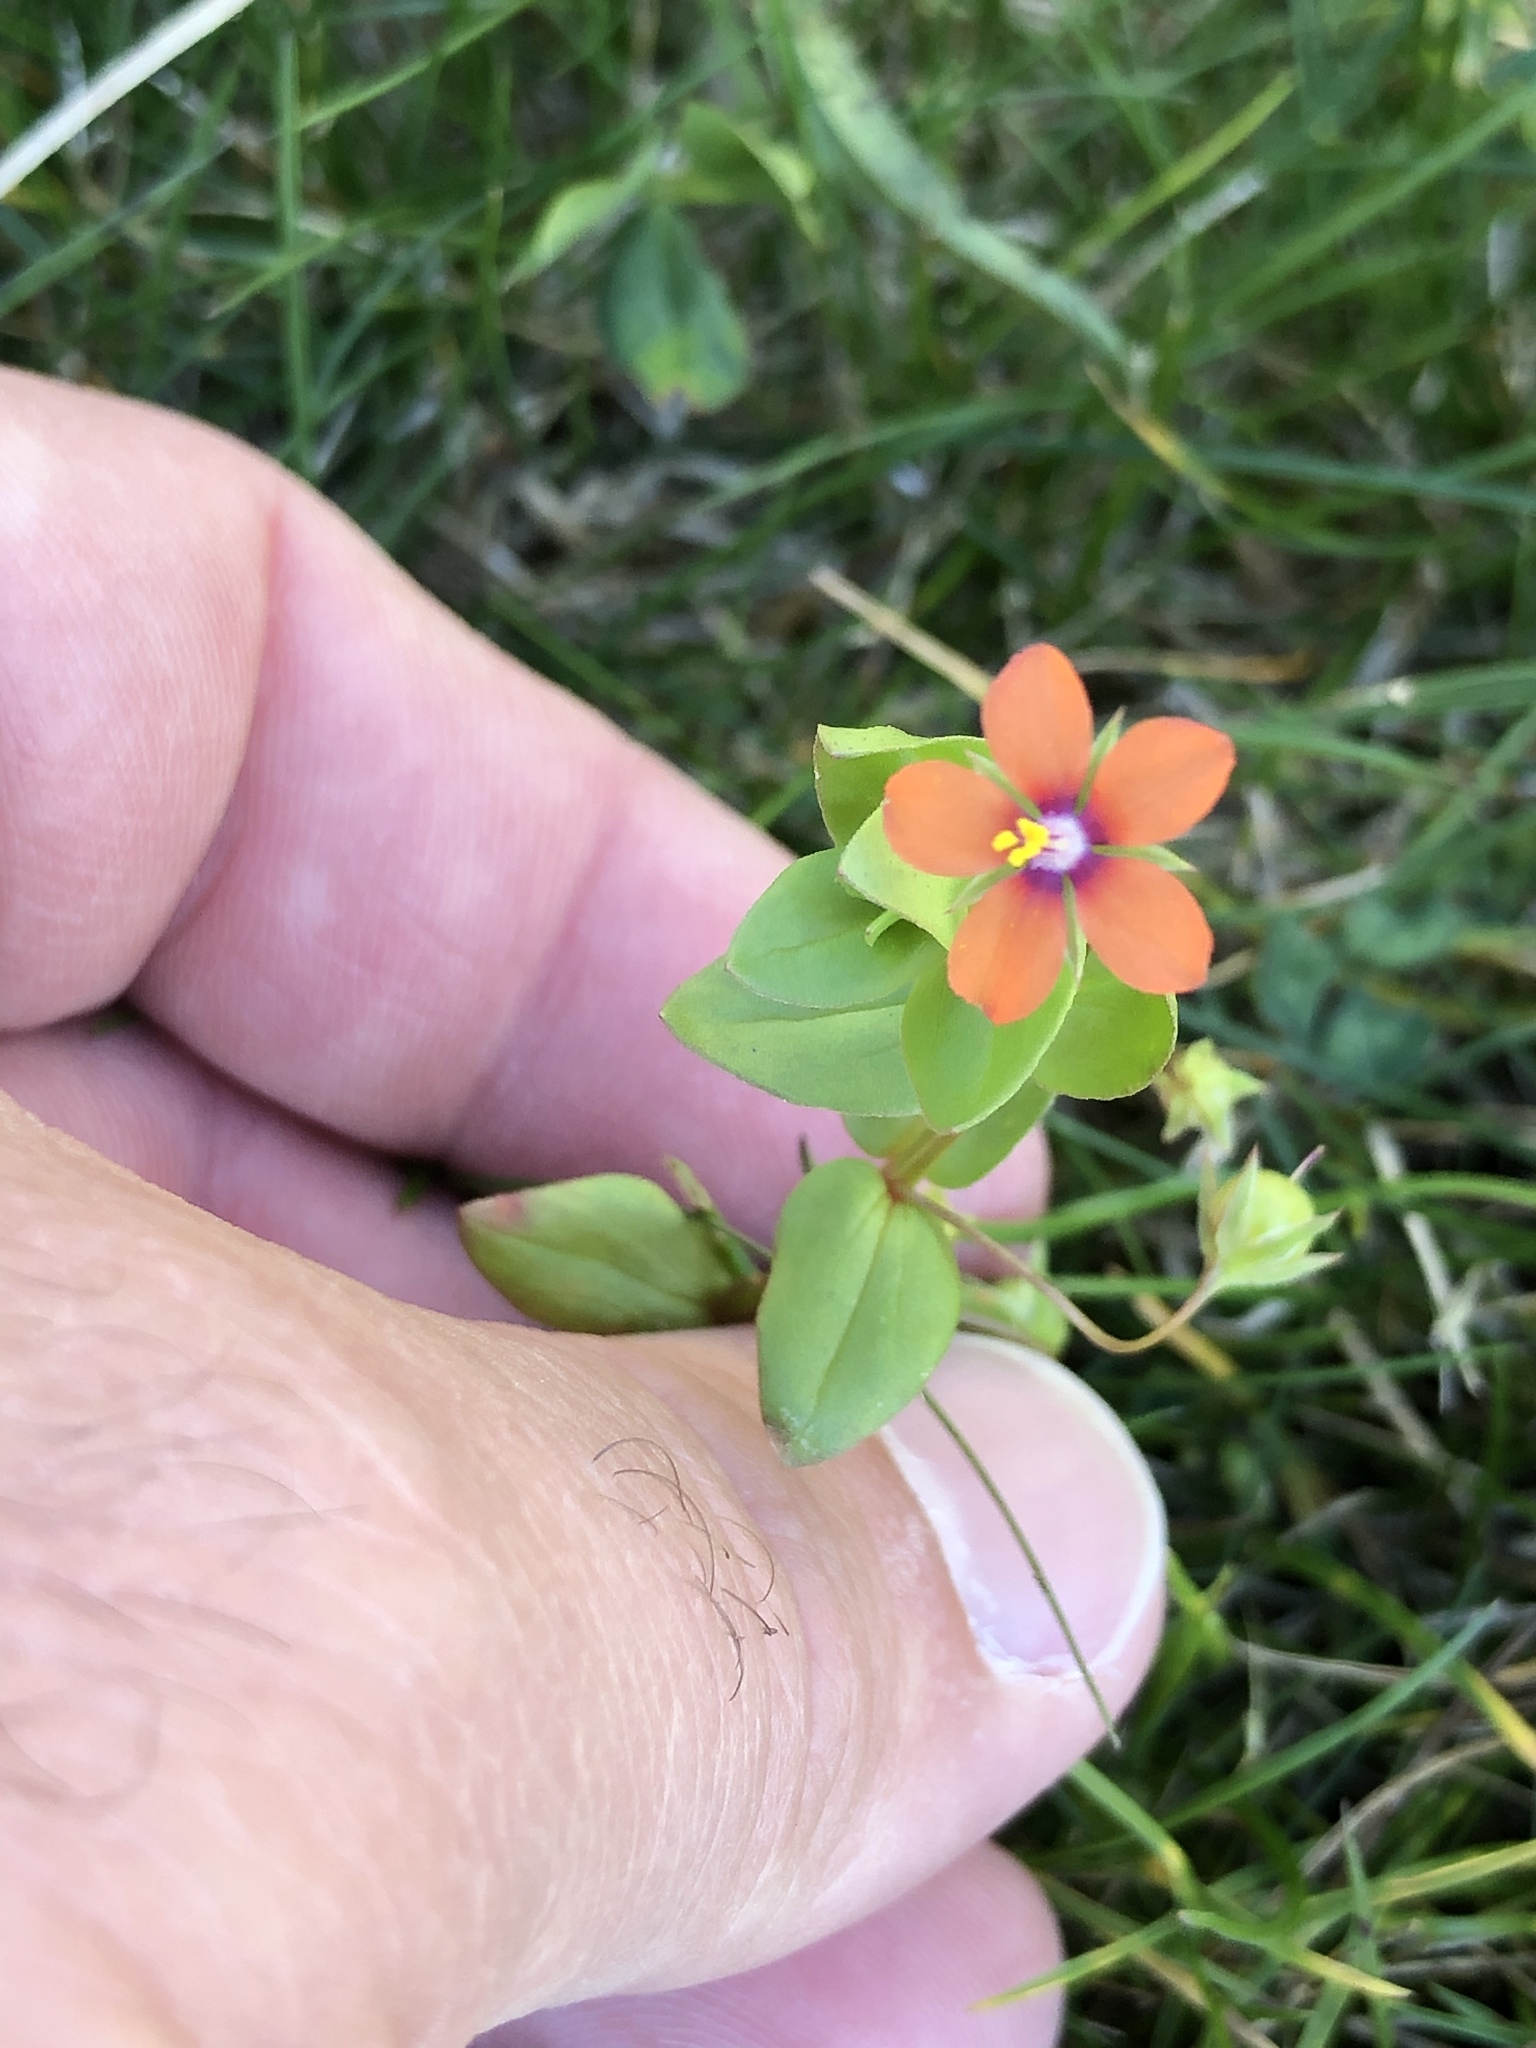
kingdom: Plantae
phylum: Tracheophyta
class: Magnoliopsida
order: Ericales
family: Primulaceae
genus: Lysimachia
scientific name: Lysimachia arvensis
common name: Scarlet pimpernel
